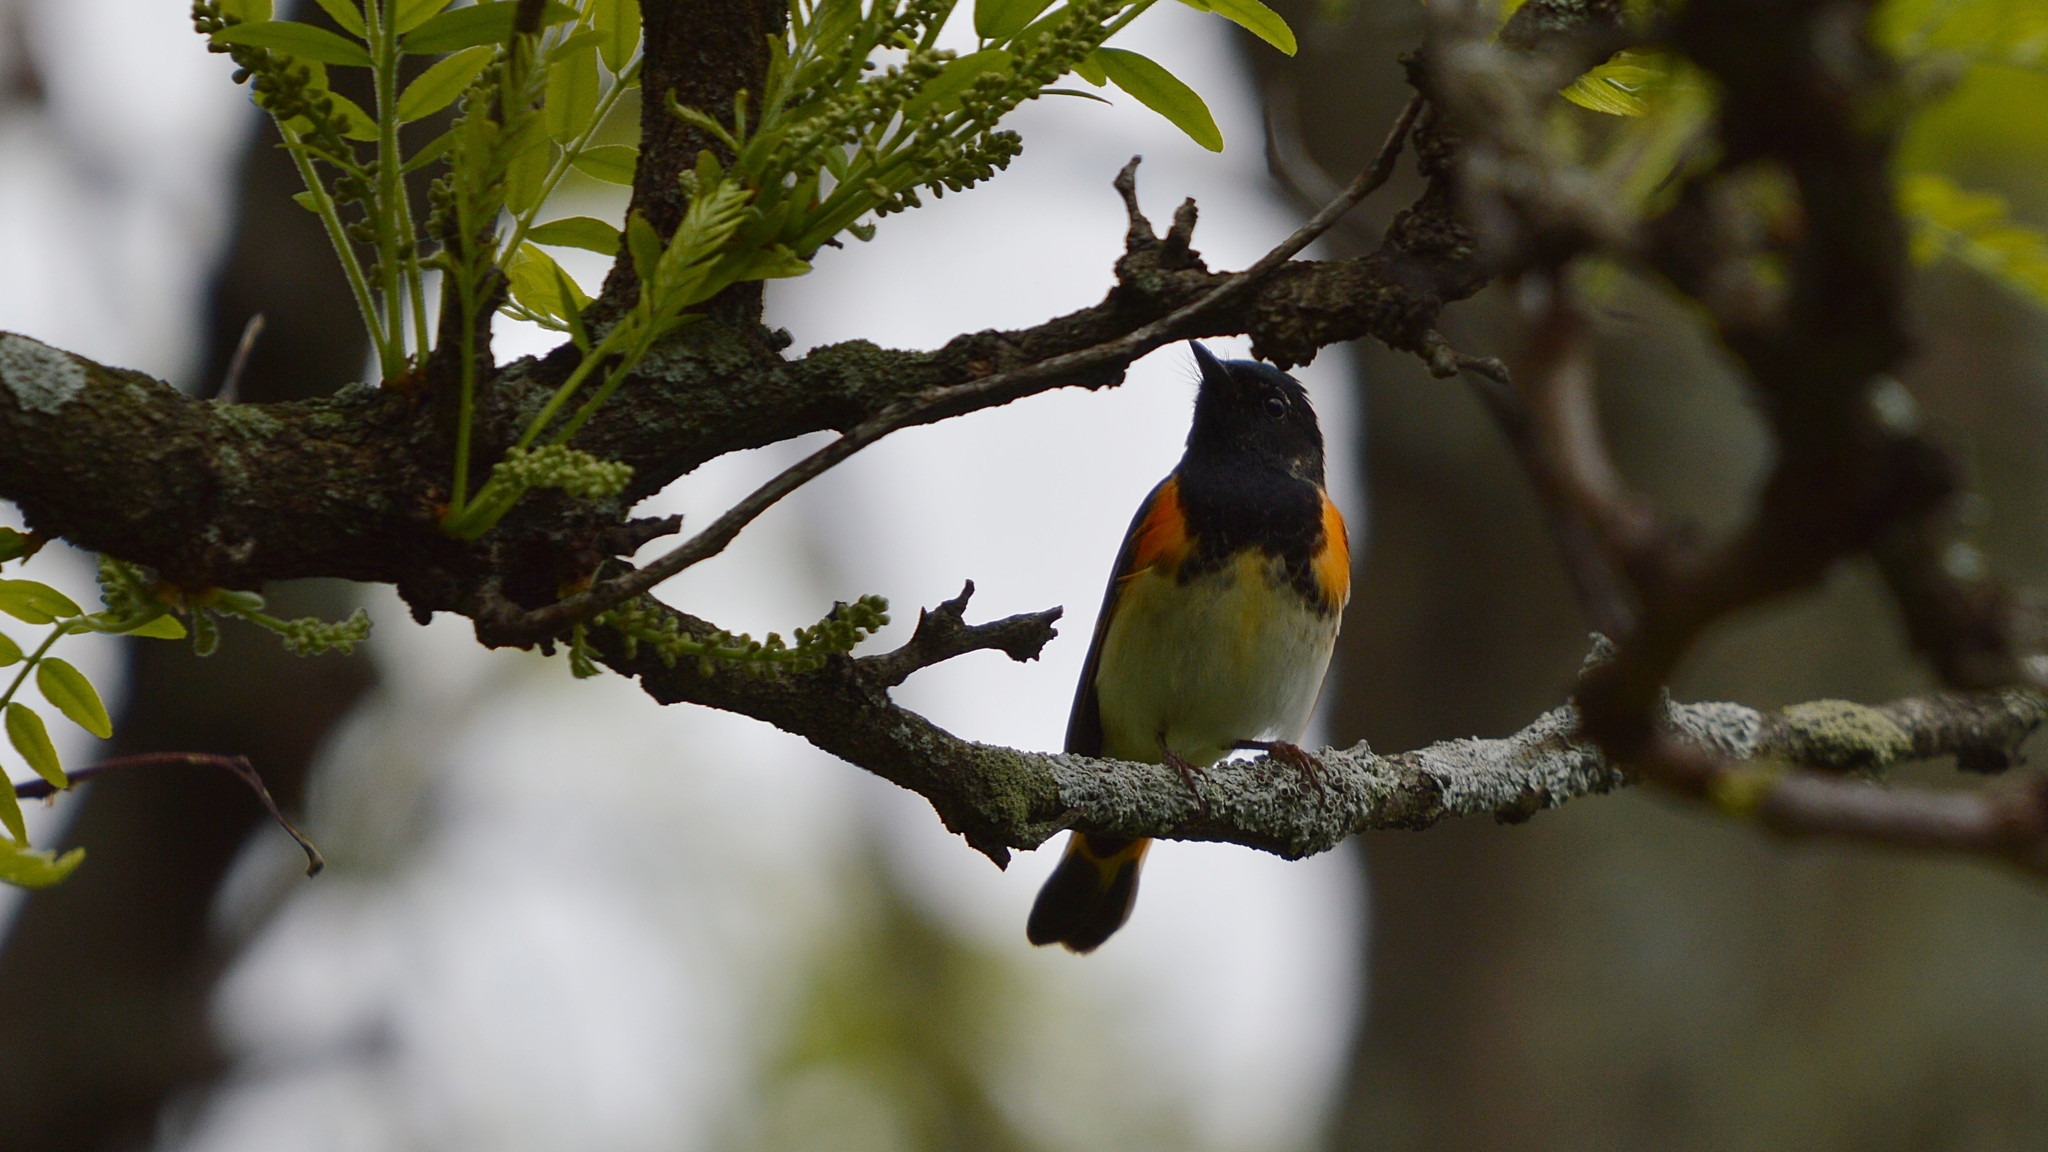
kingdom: Animalia
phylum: Chordata
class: Aves
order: Passeriformes
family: Parulidae
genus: Setophaga
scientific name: Setophaga ruticilla
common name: American redstart
